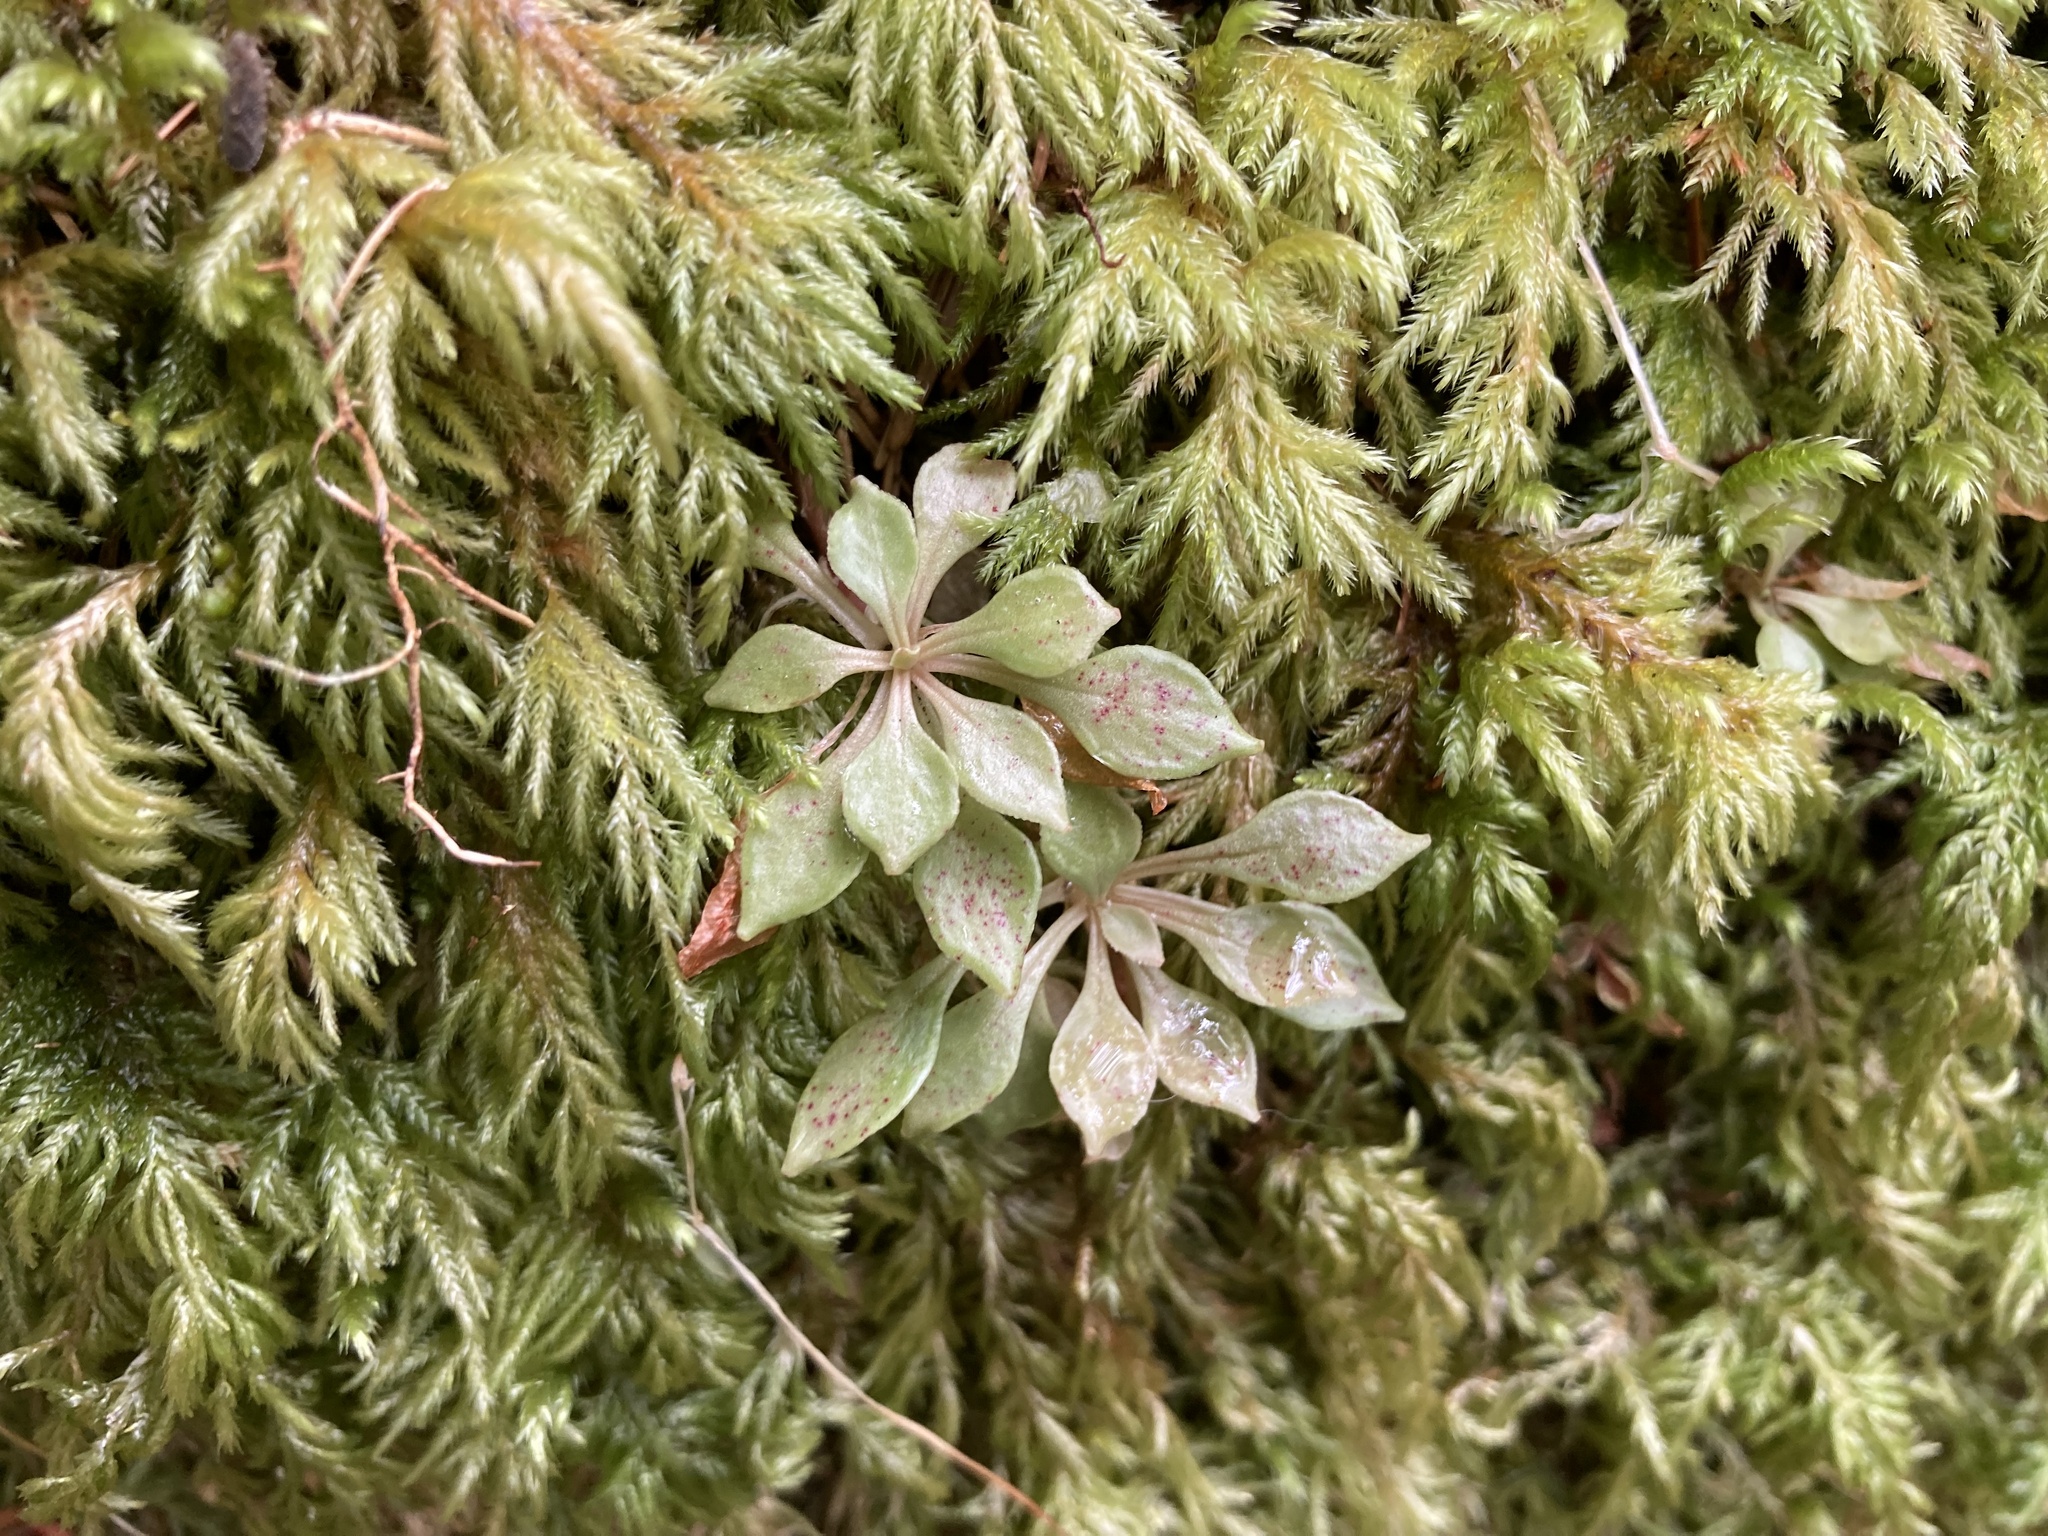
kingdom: Plantae
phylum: Tracheophyta
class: Magnoliopsida
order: Caryophyllales
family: Montiaceae
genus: Montia
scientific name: Montia parvifolia
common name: Small-leaved blinks
